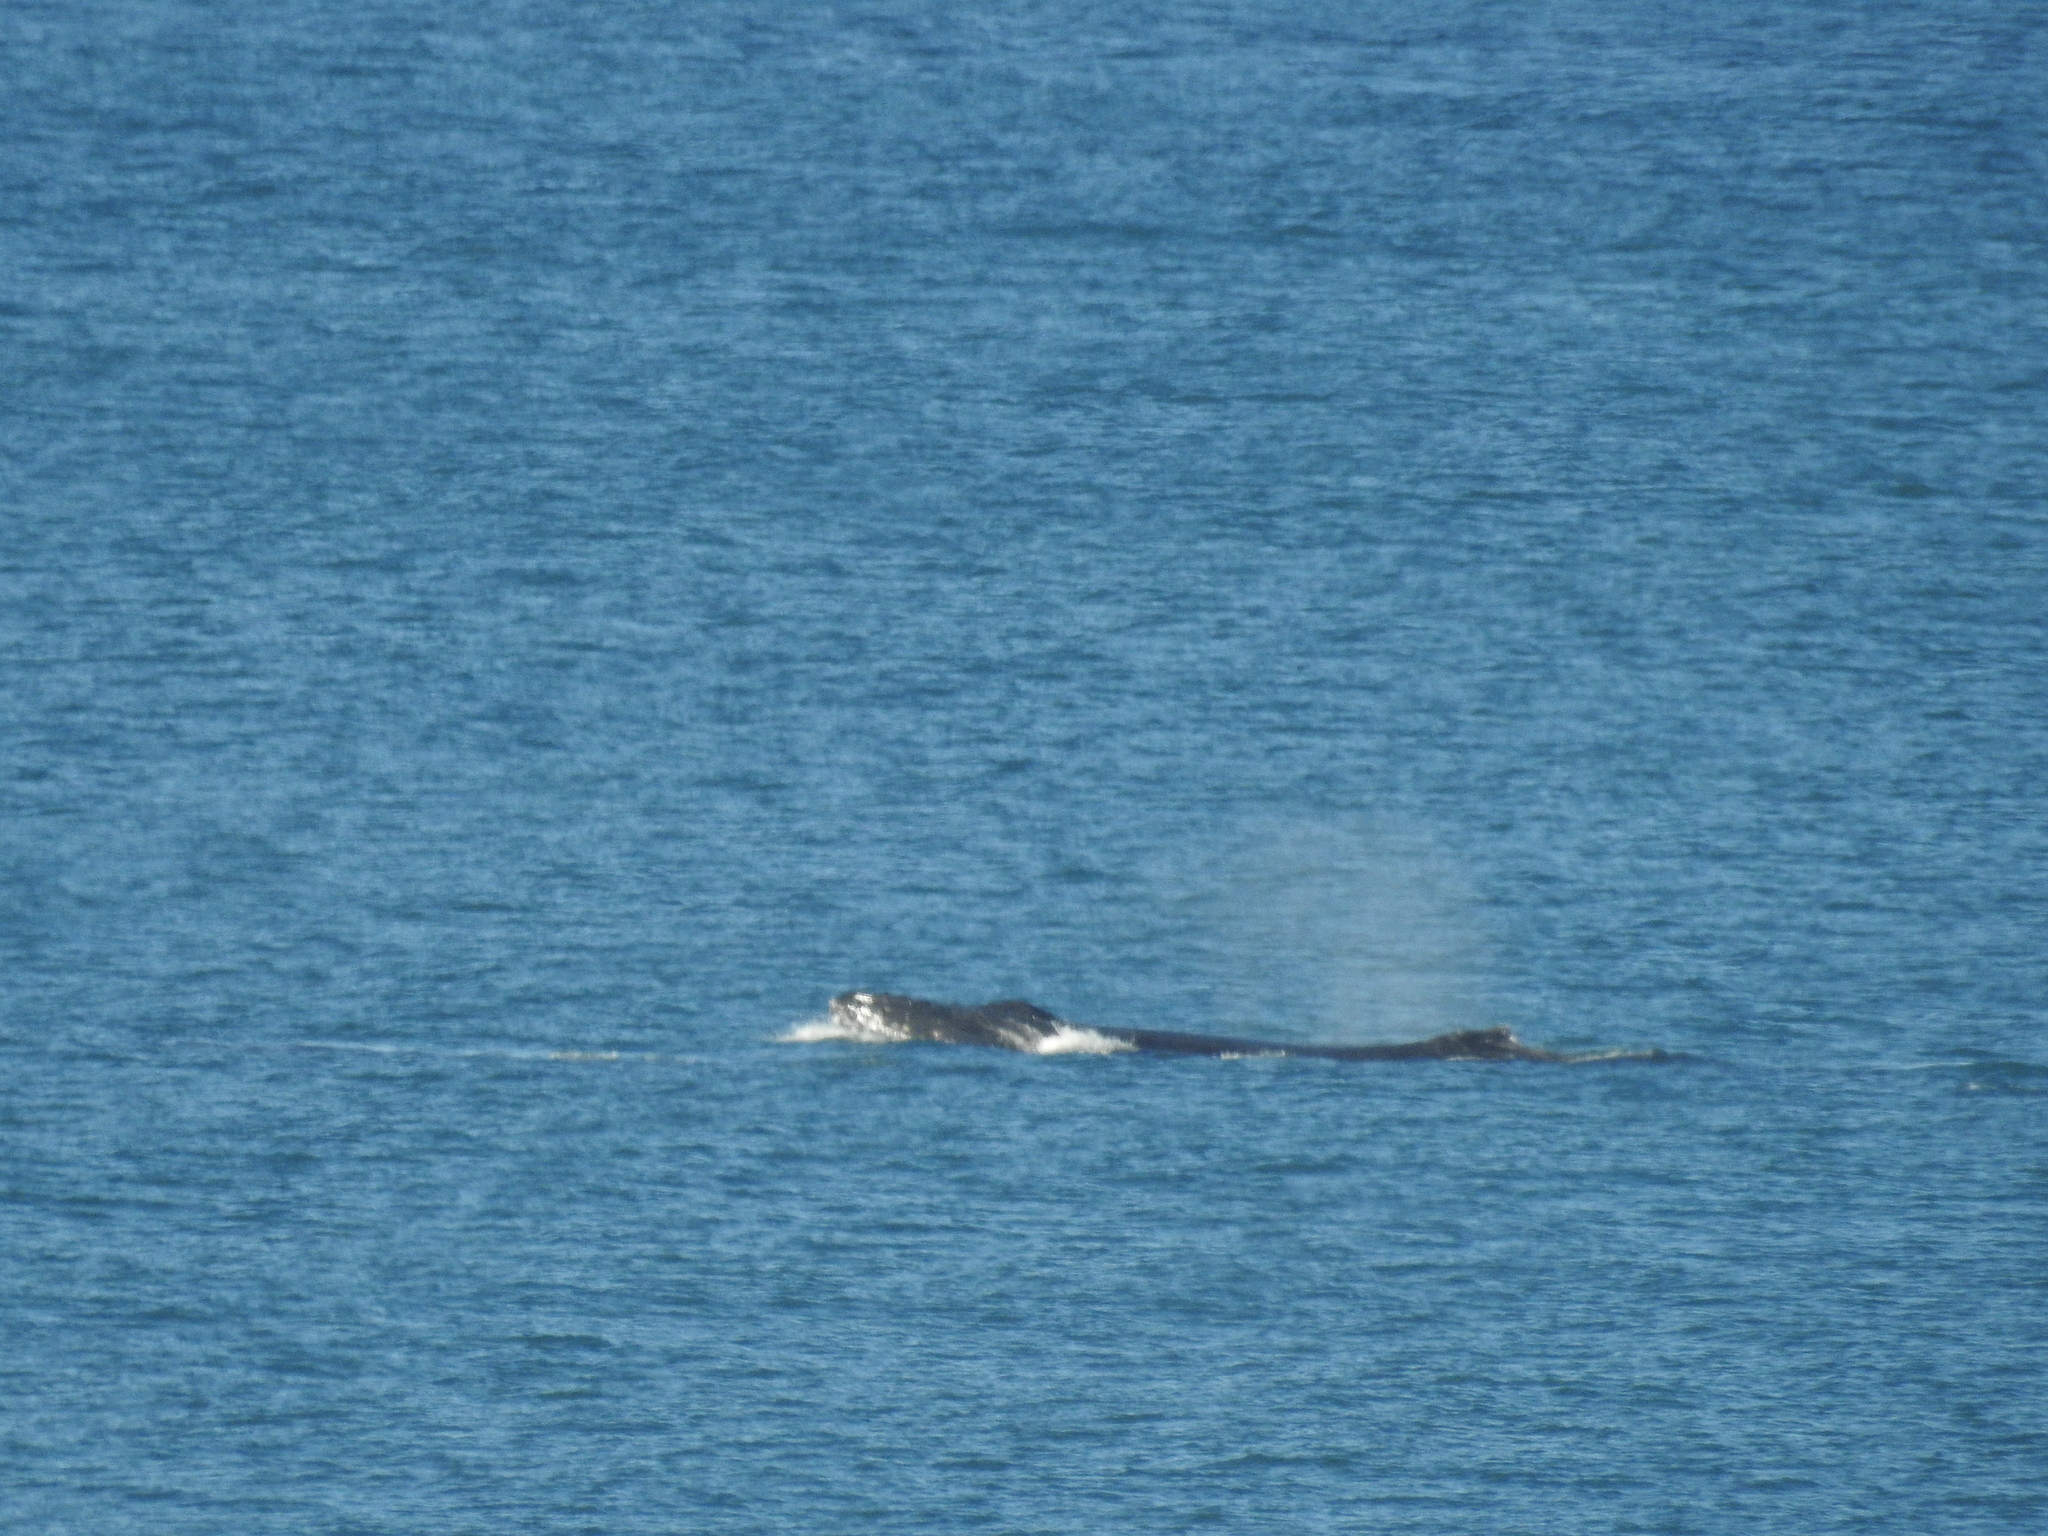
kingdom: Animalia
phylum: Chordata
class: Mammalia
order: Cetacea
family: Balaenopteridae
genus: Megaptera
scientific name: Megaptera novaeangliae
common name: Humpback whale
